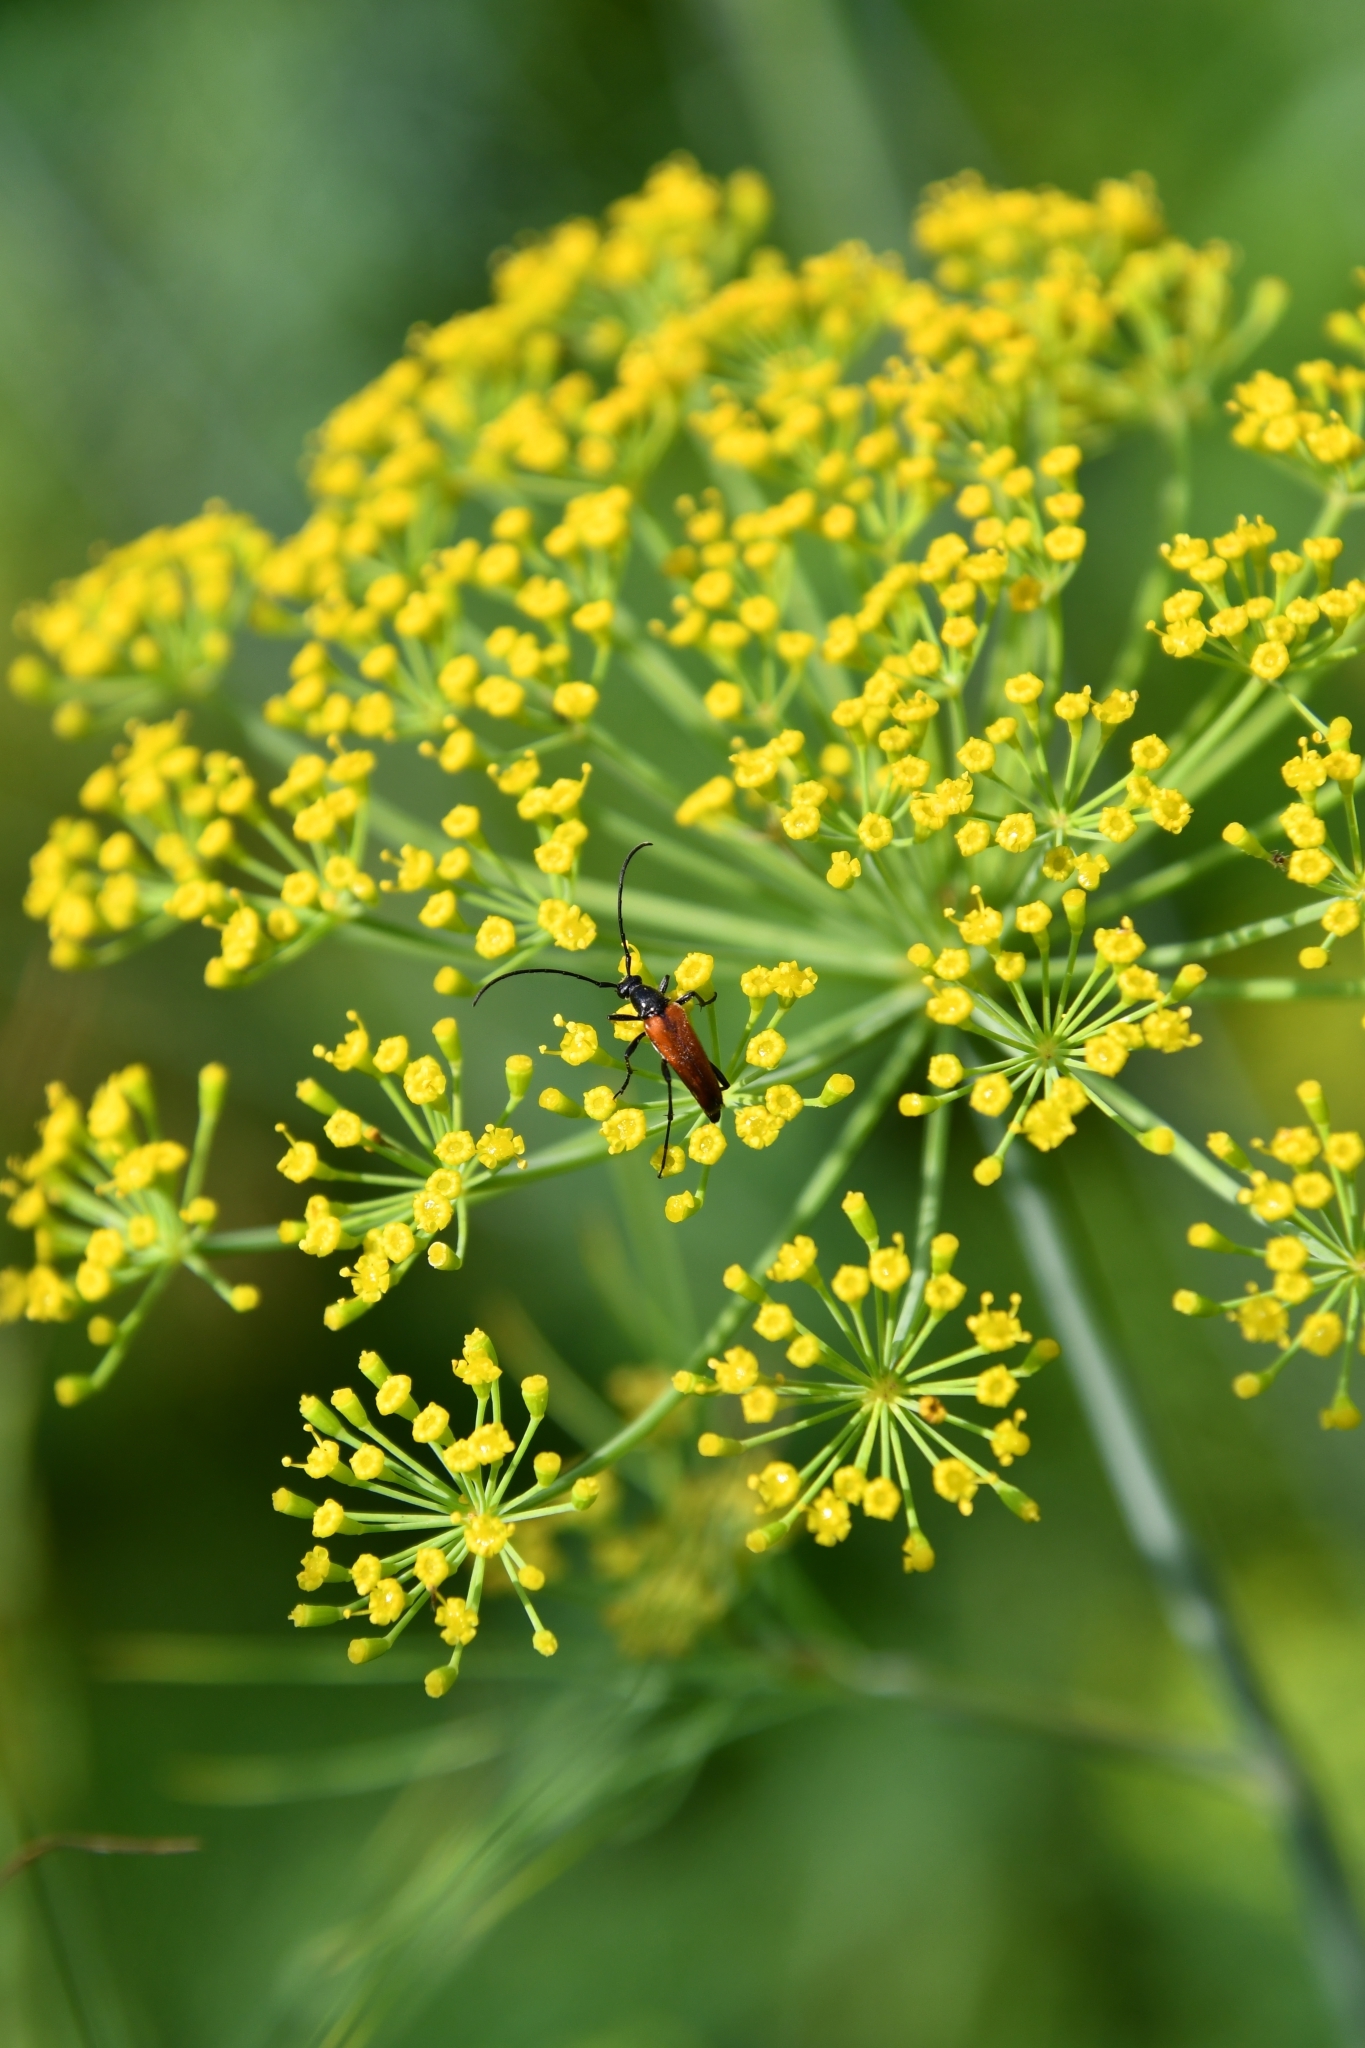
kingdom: Animalia
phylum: Arthropoda
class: Insecta
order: Coleoptera
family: Cerambycidae
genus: Stenurella
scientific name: Stenurella melanura
